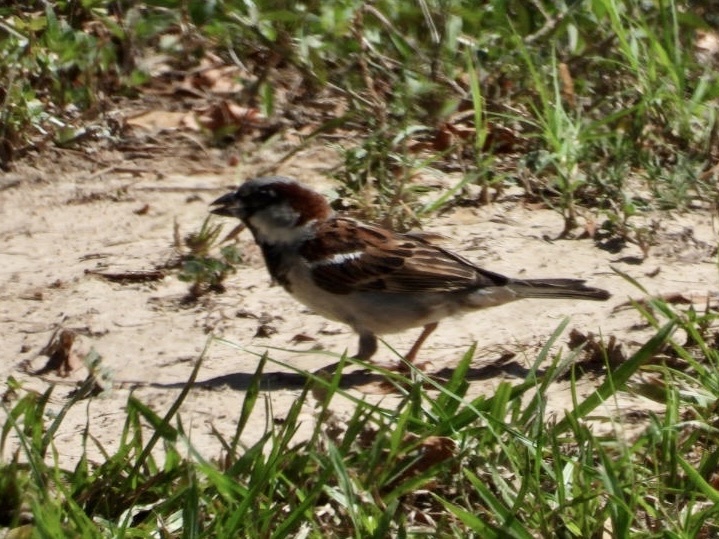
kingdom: Animalia
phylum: Chordata
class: Aves
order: Passeriformes
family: Passeridae
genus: Passer
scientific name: Passer domesticus
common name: House sparrow
